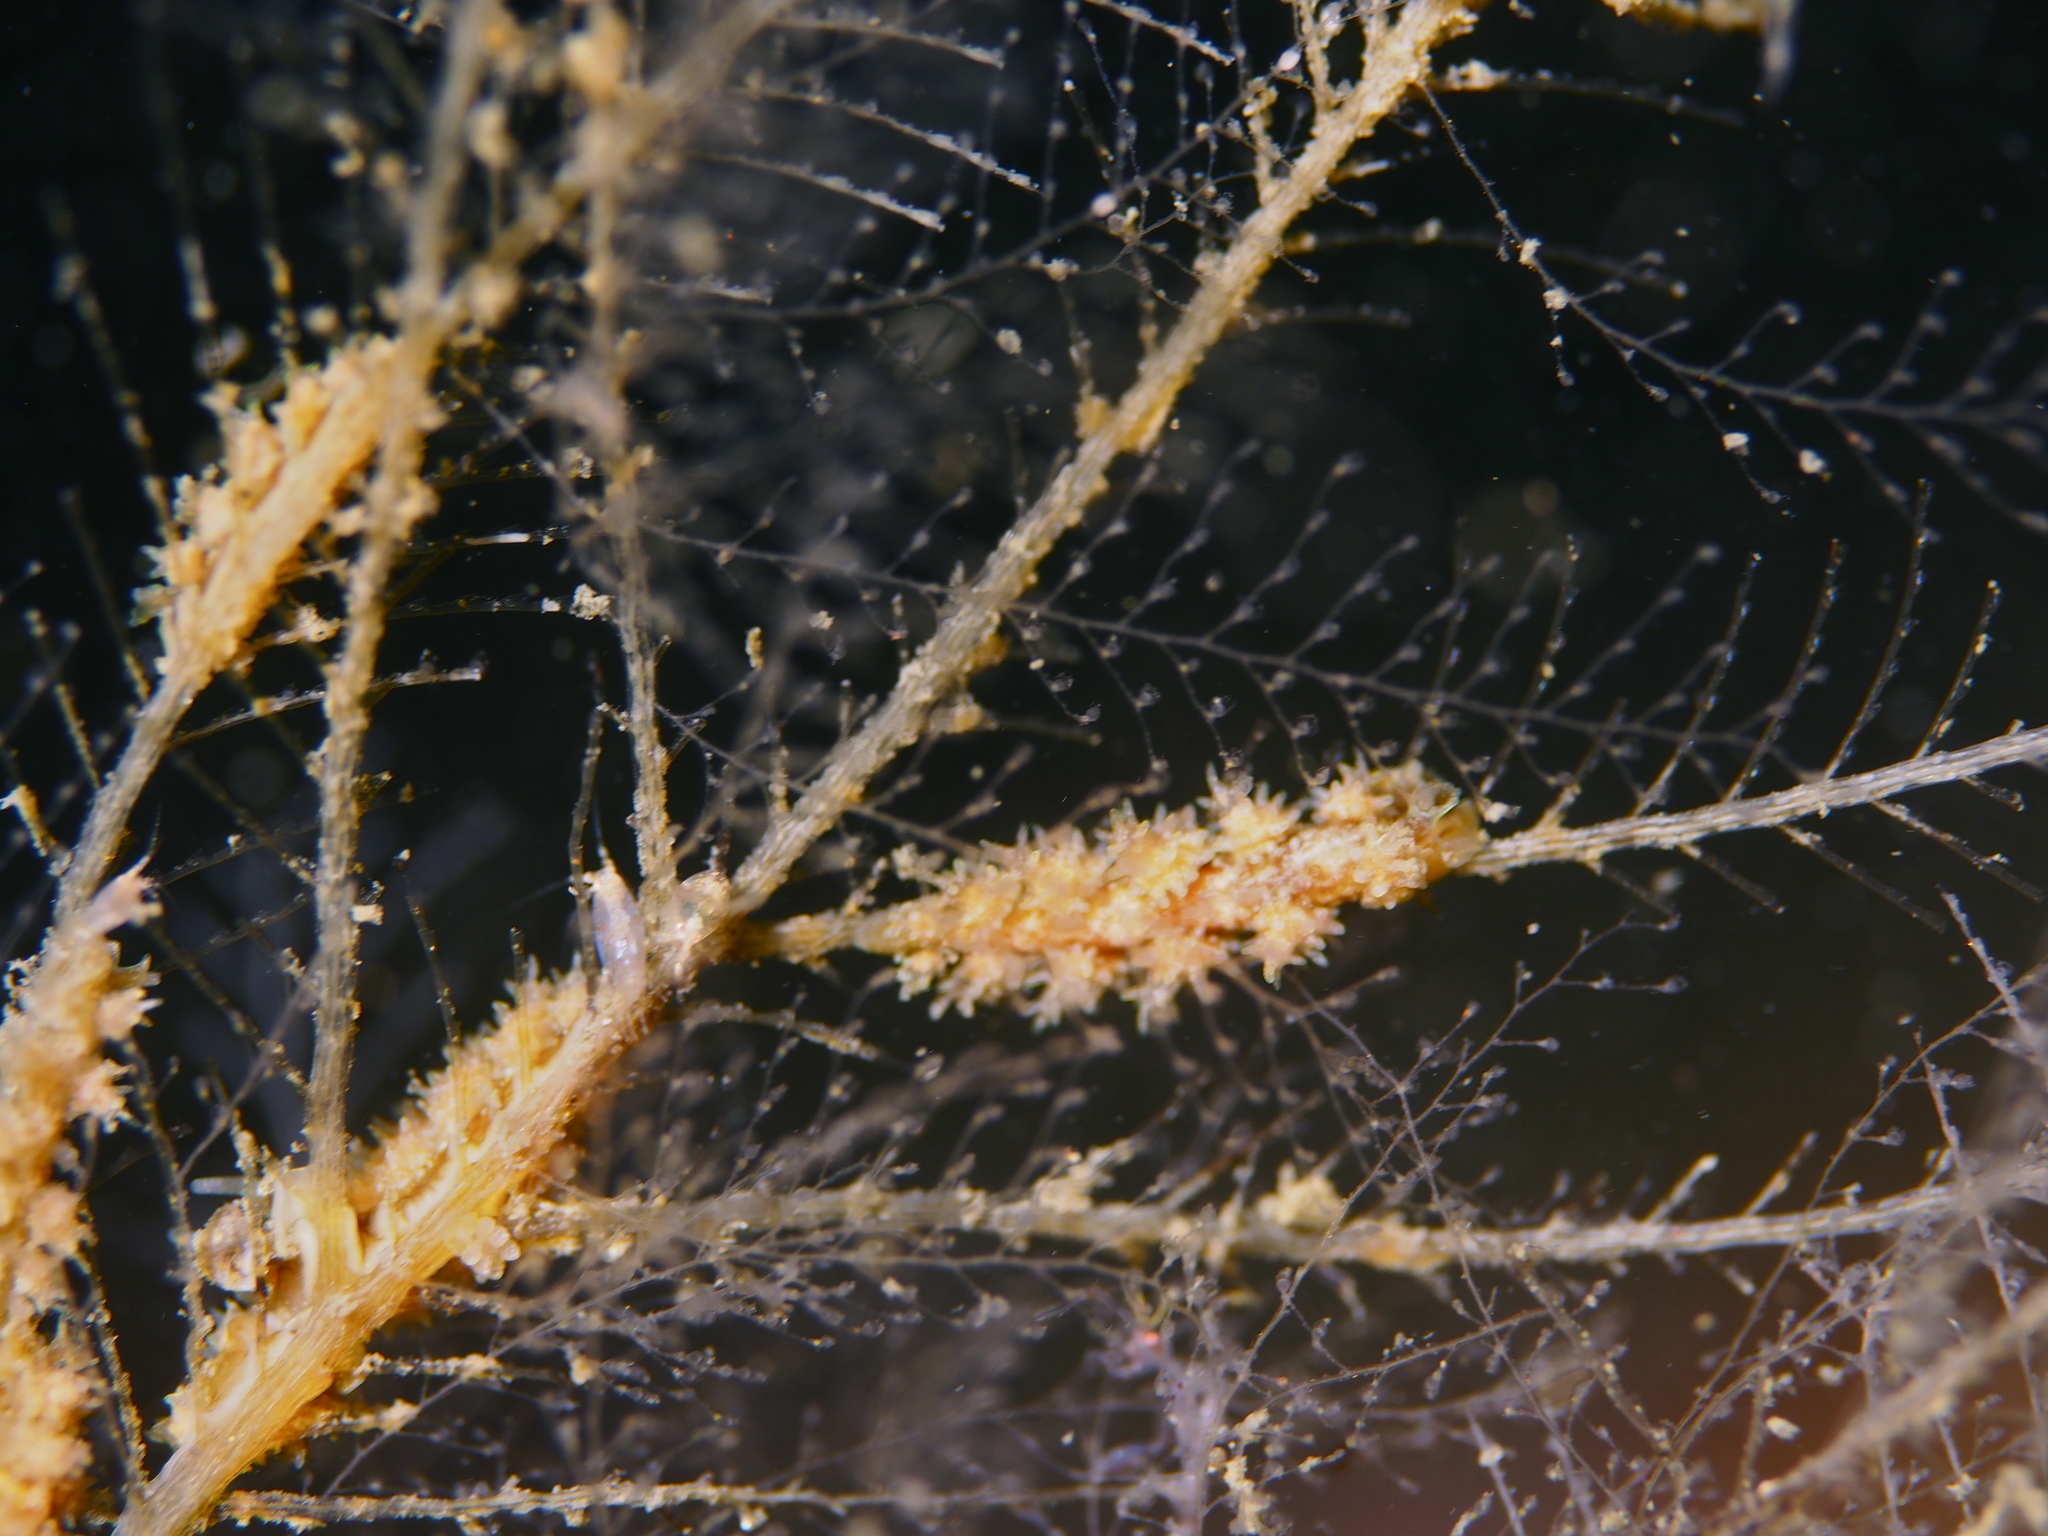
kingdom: Animalia
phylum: Mollusca
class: Gastropoda
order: Nudibranchia
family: Dotidae
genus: Doto
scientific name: Doto hystrix
